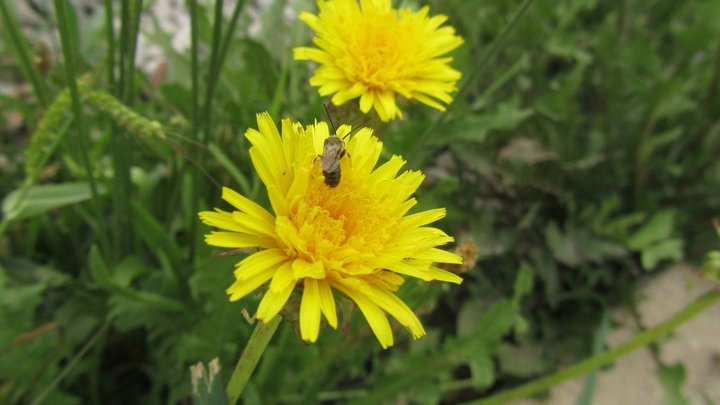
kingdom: Plantae
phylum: Tracheophyta
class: Magnoliopsida
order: Asterales
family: Asteraceae
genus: Taraxacum
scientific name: Taraxacum officinale
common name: Common dandelion
